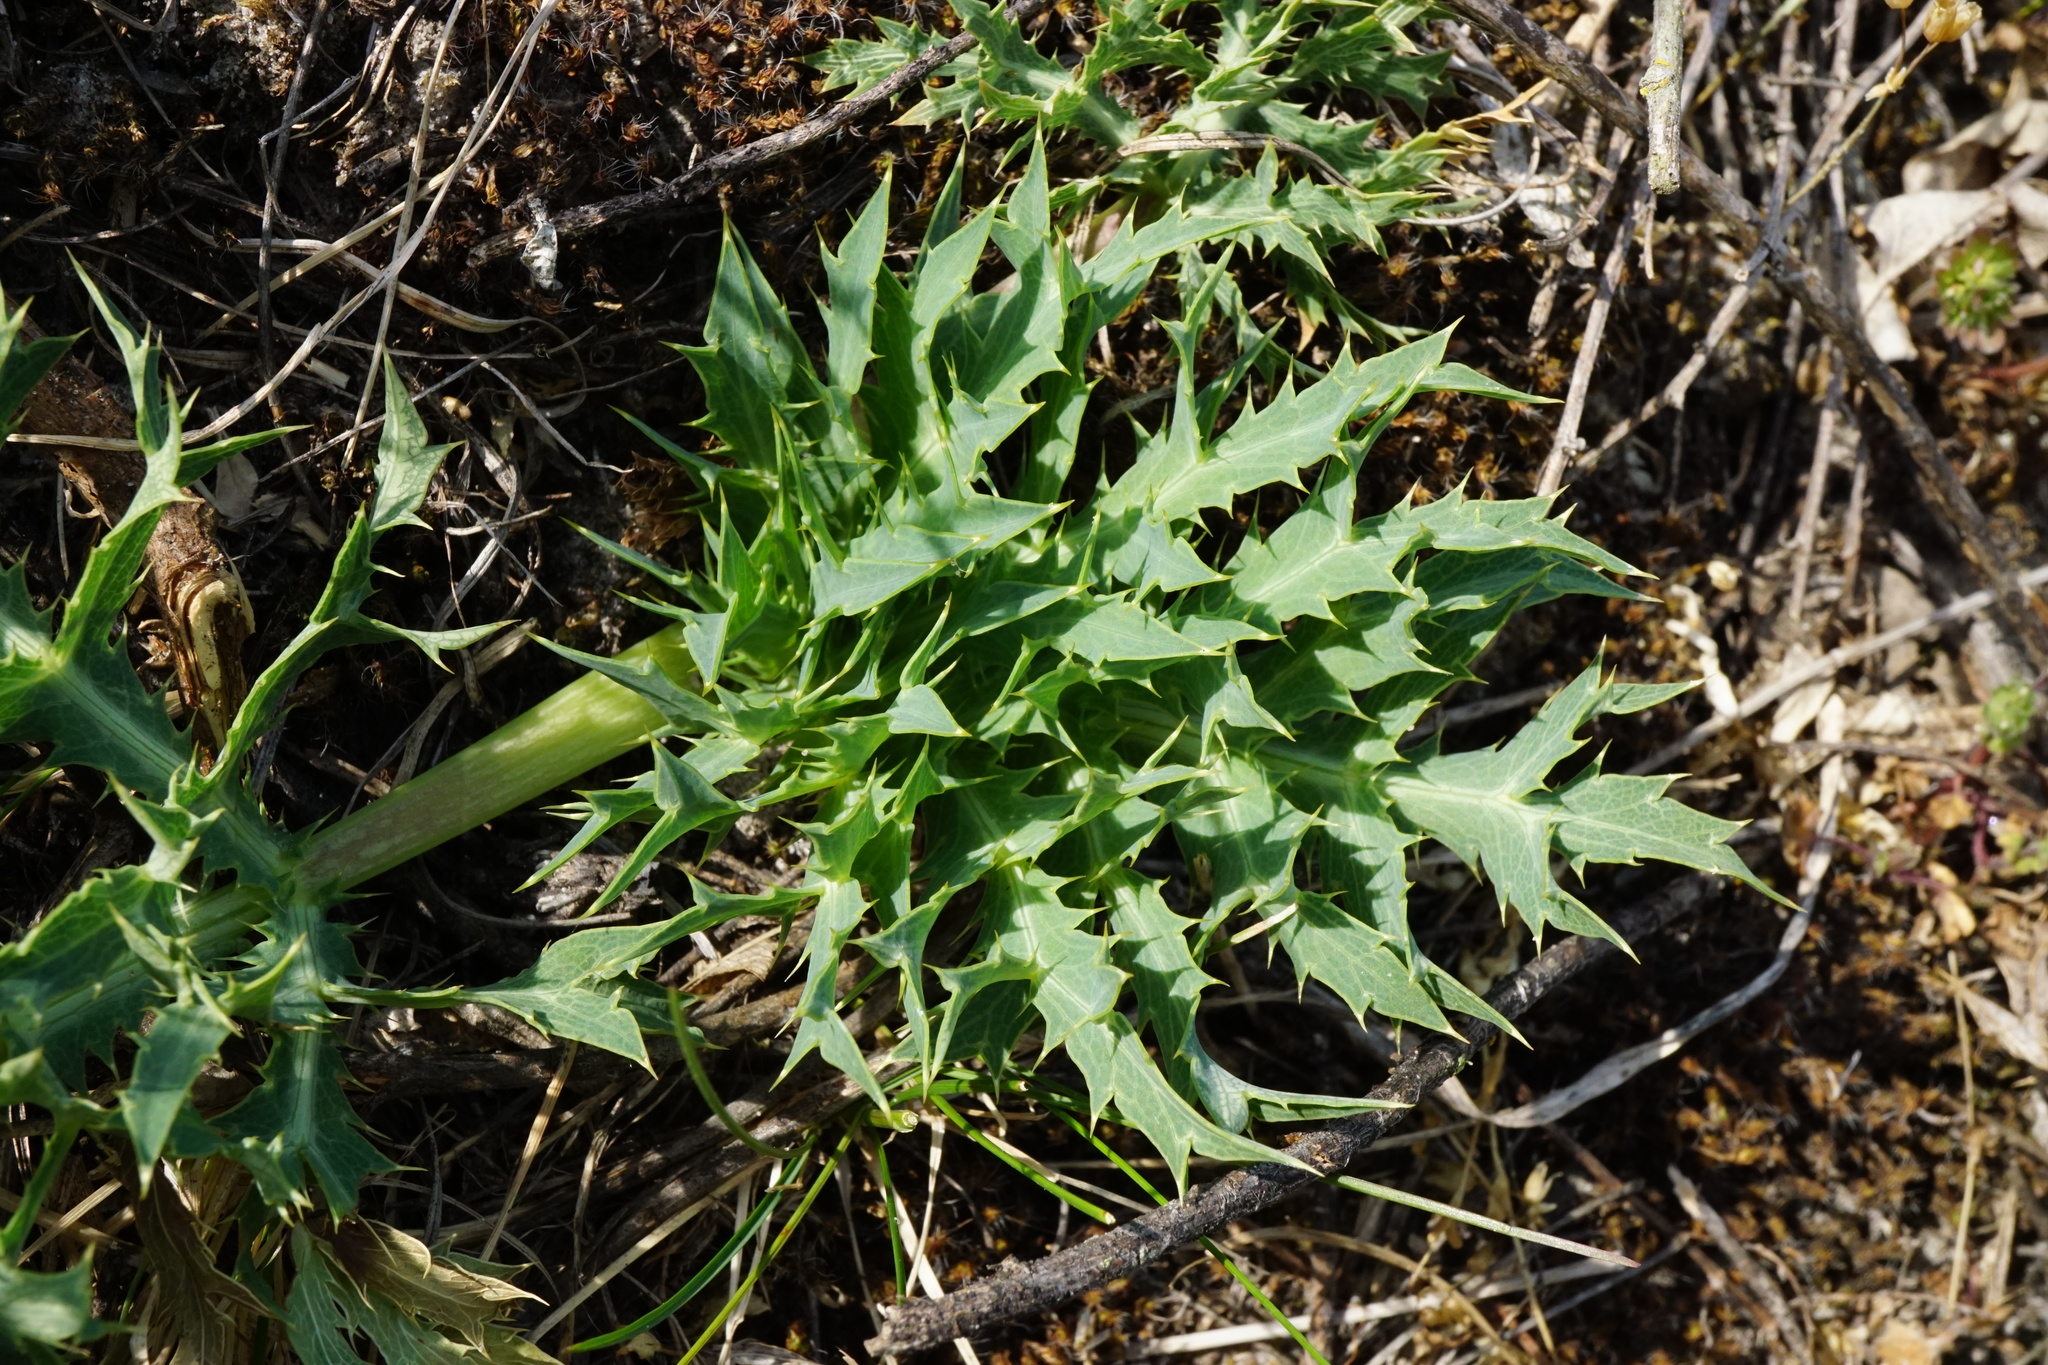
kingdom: Plantae
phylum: Tracheophyta
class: Magnoliopsida
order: Apiales
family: Apiaceae
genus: Eryngium
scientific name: Eryngium campestre
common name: Field eryngo
